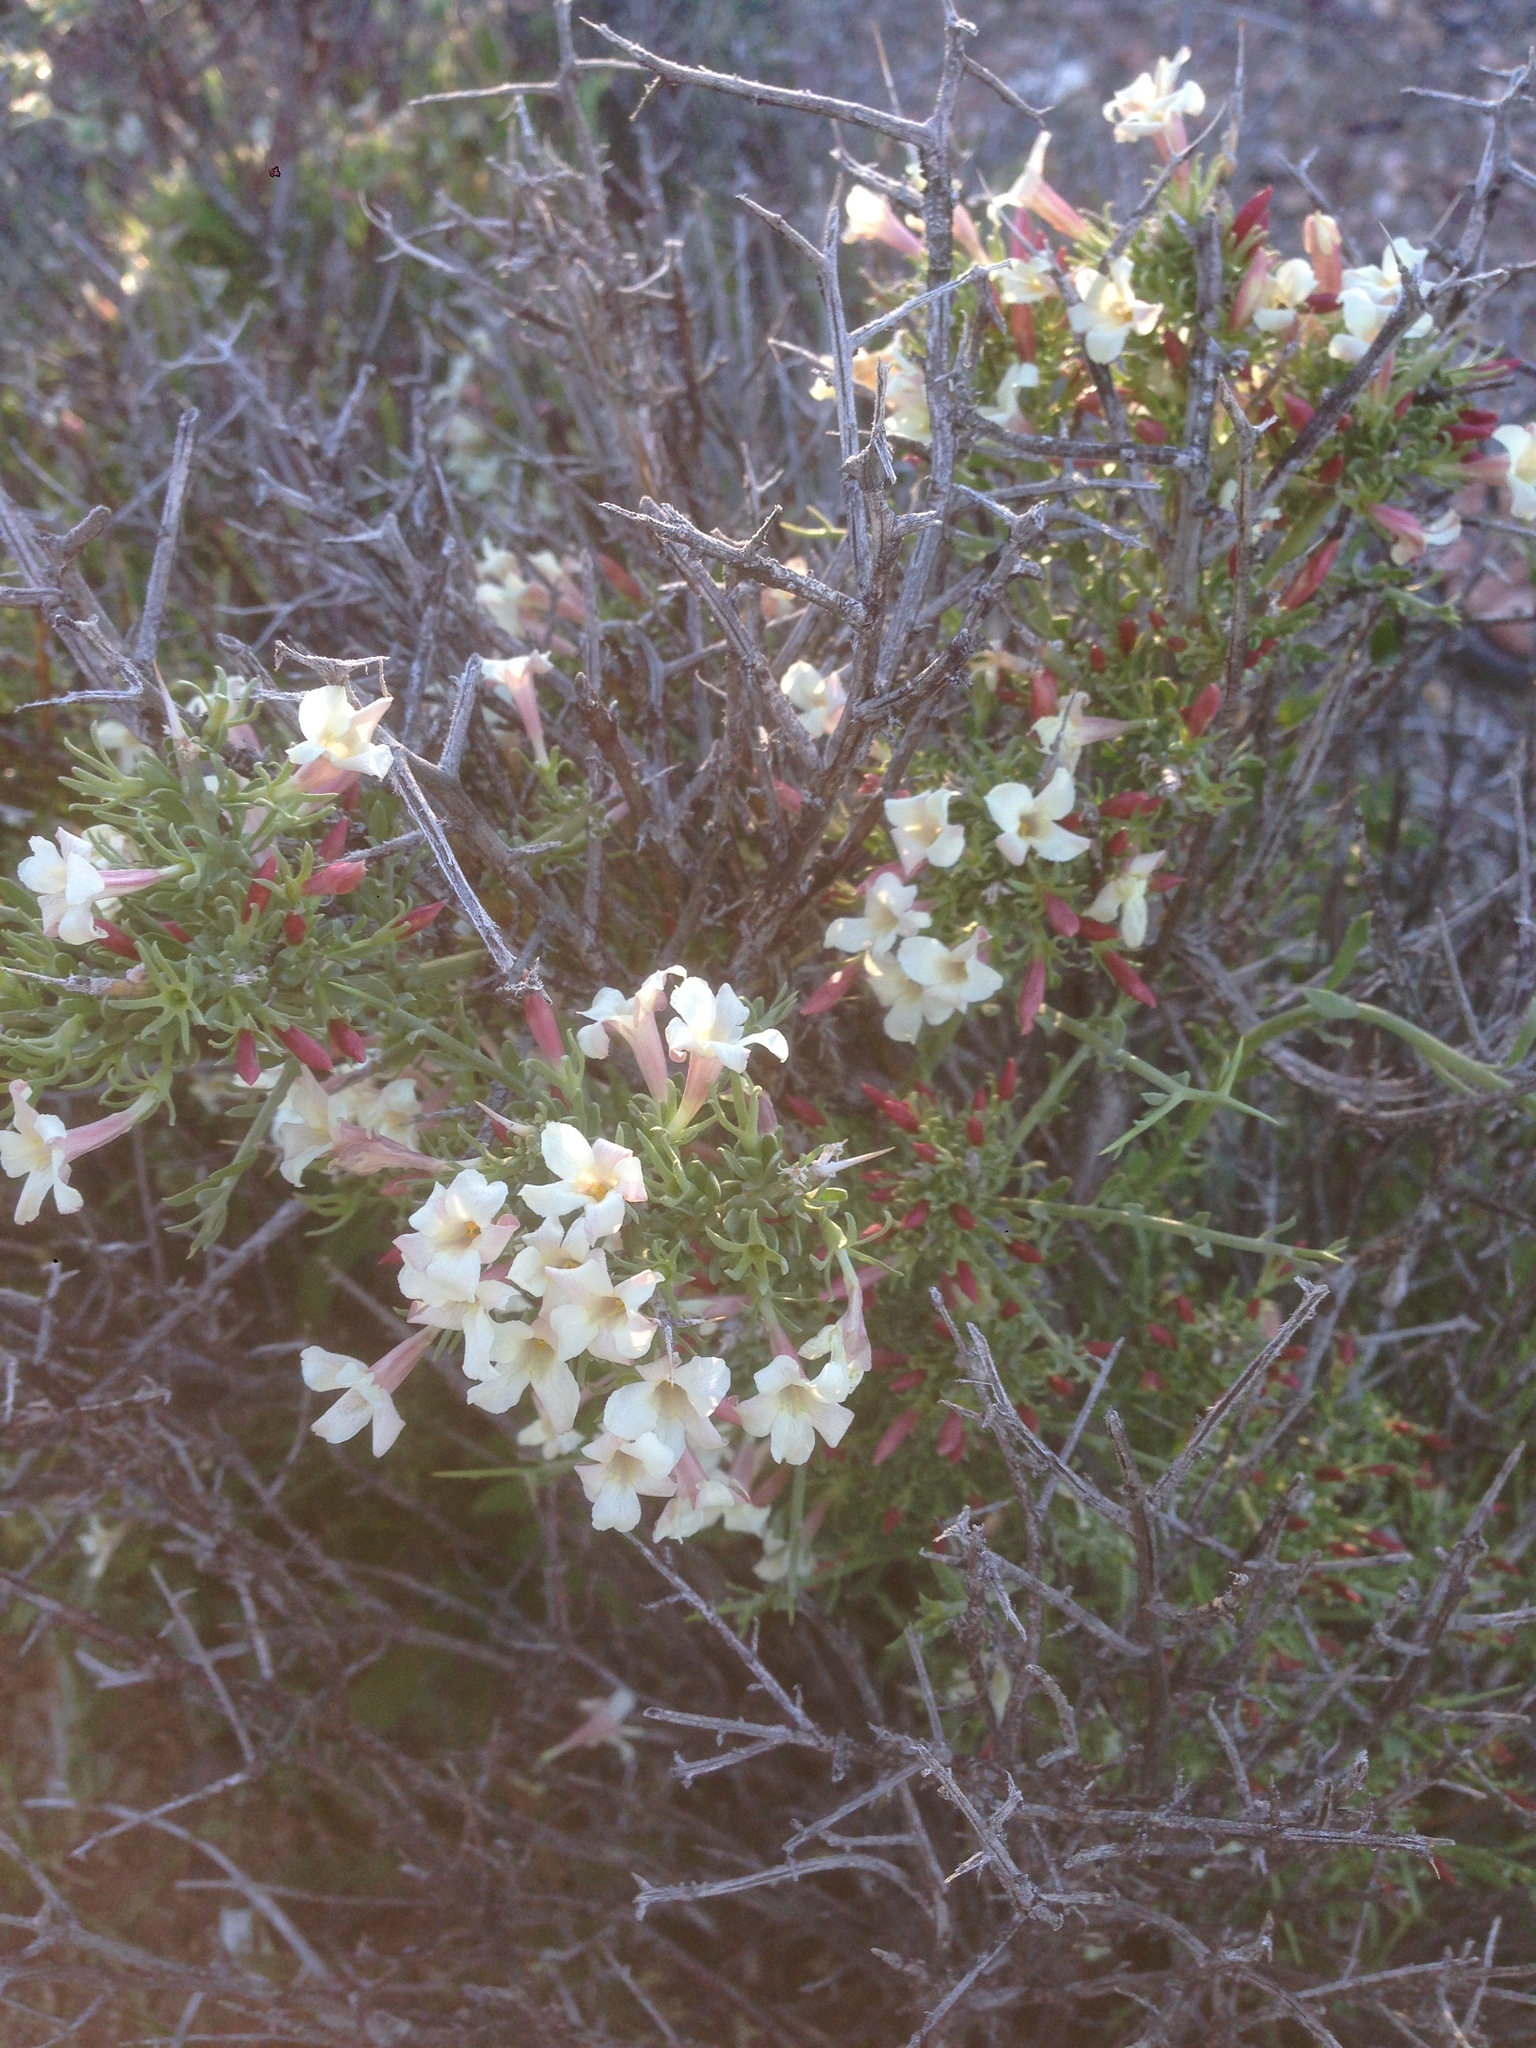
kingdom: Plantae
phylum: Tracheophyta
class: Magnoliopsida
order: Lamiales
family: Oleaceae
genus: Menodora
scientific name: Menodora spinescens
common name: Spiny menodora
